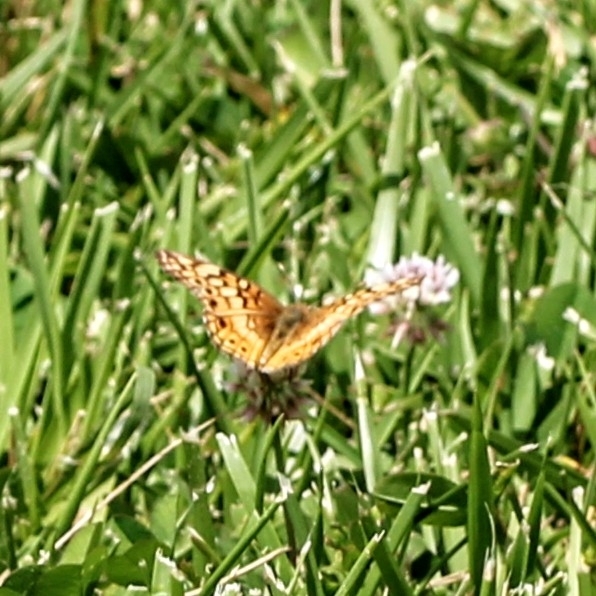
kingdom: Animalia
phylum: Arthropoda
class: Insecta
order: Lepidoptera
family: Nymphalidae
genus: Euptoieta
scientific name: Euptoieta claudia
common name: Variegated fritillary
